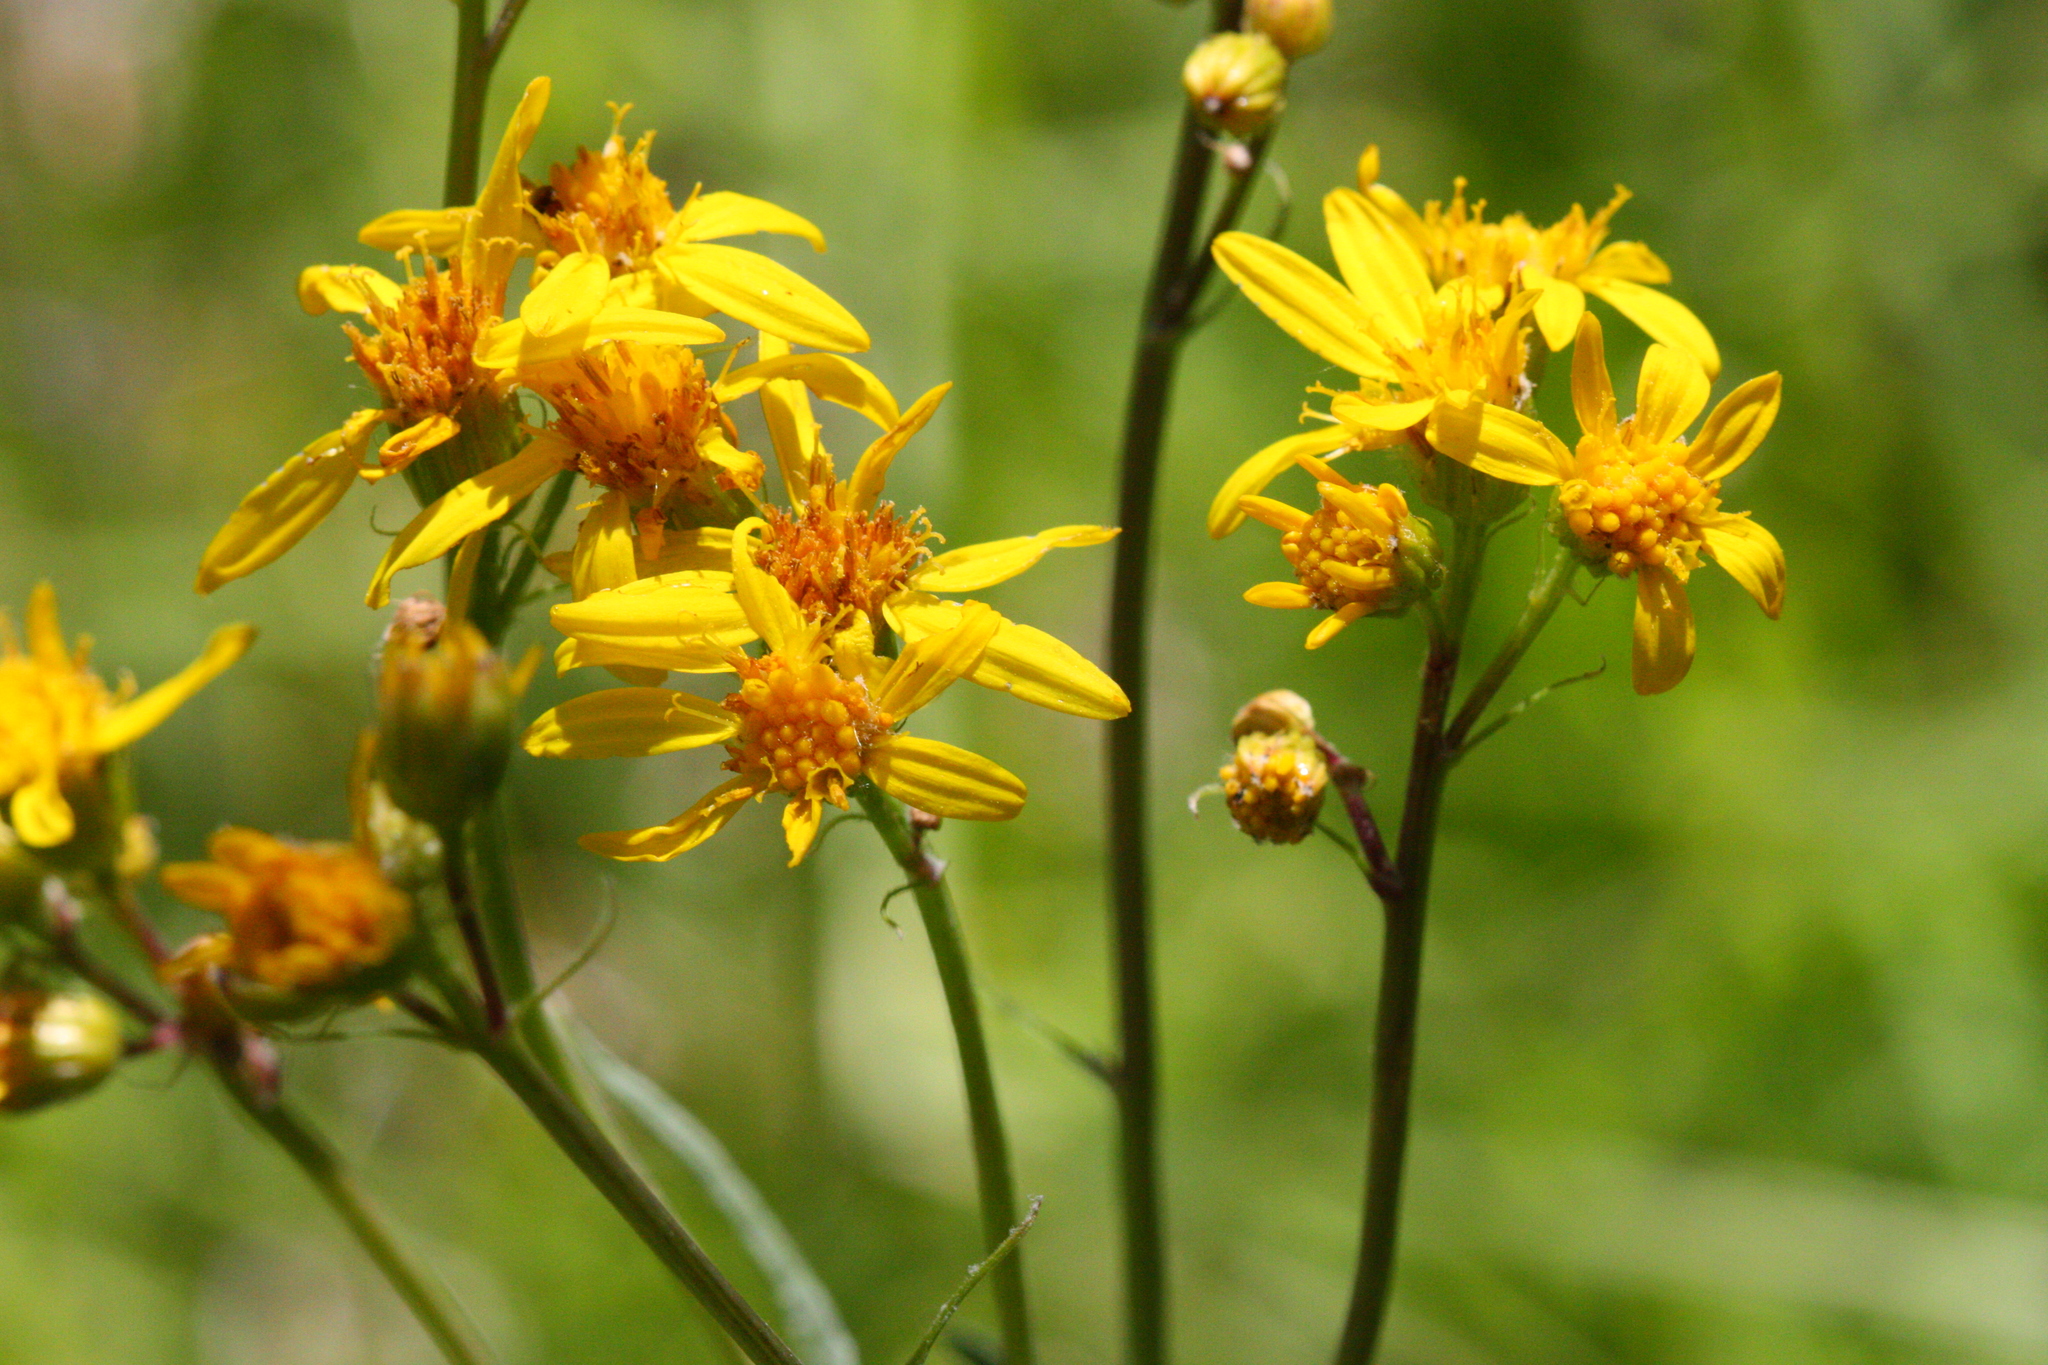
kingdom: Plantae
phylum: Tracheophyta
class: Magnoliopsida
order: Asterales
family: Asteraceae
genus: Senecio
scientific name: Senecio triangularis
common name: Arrowleaf butterweed
